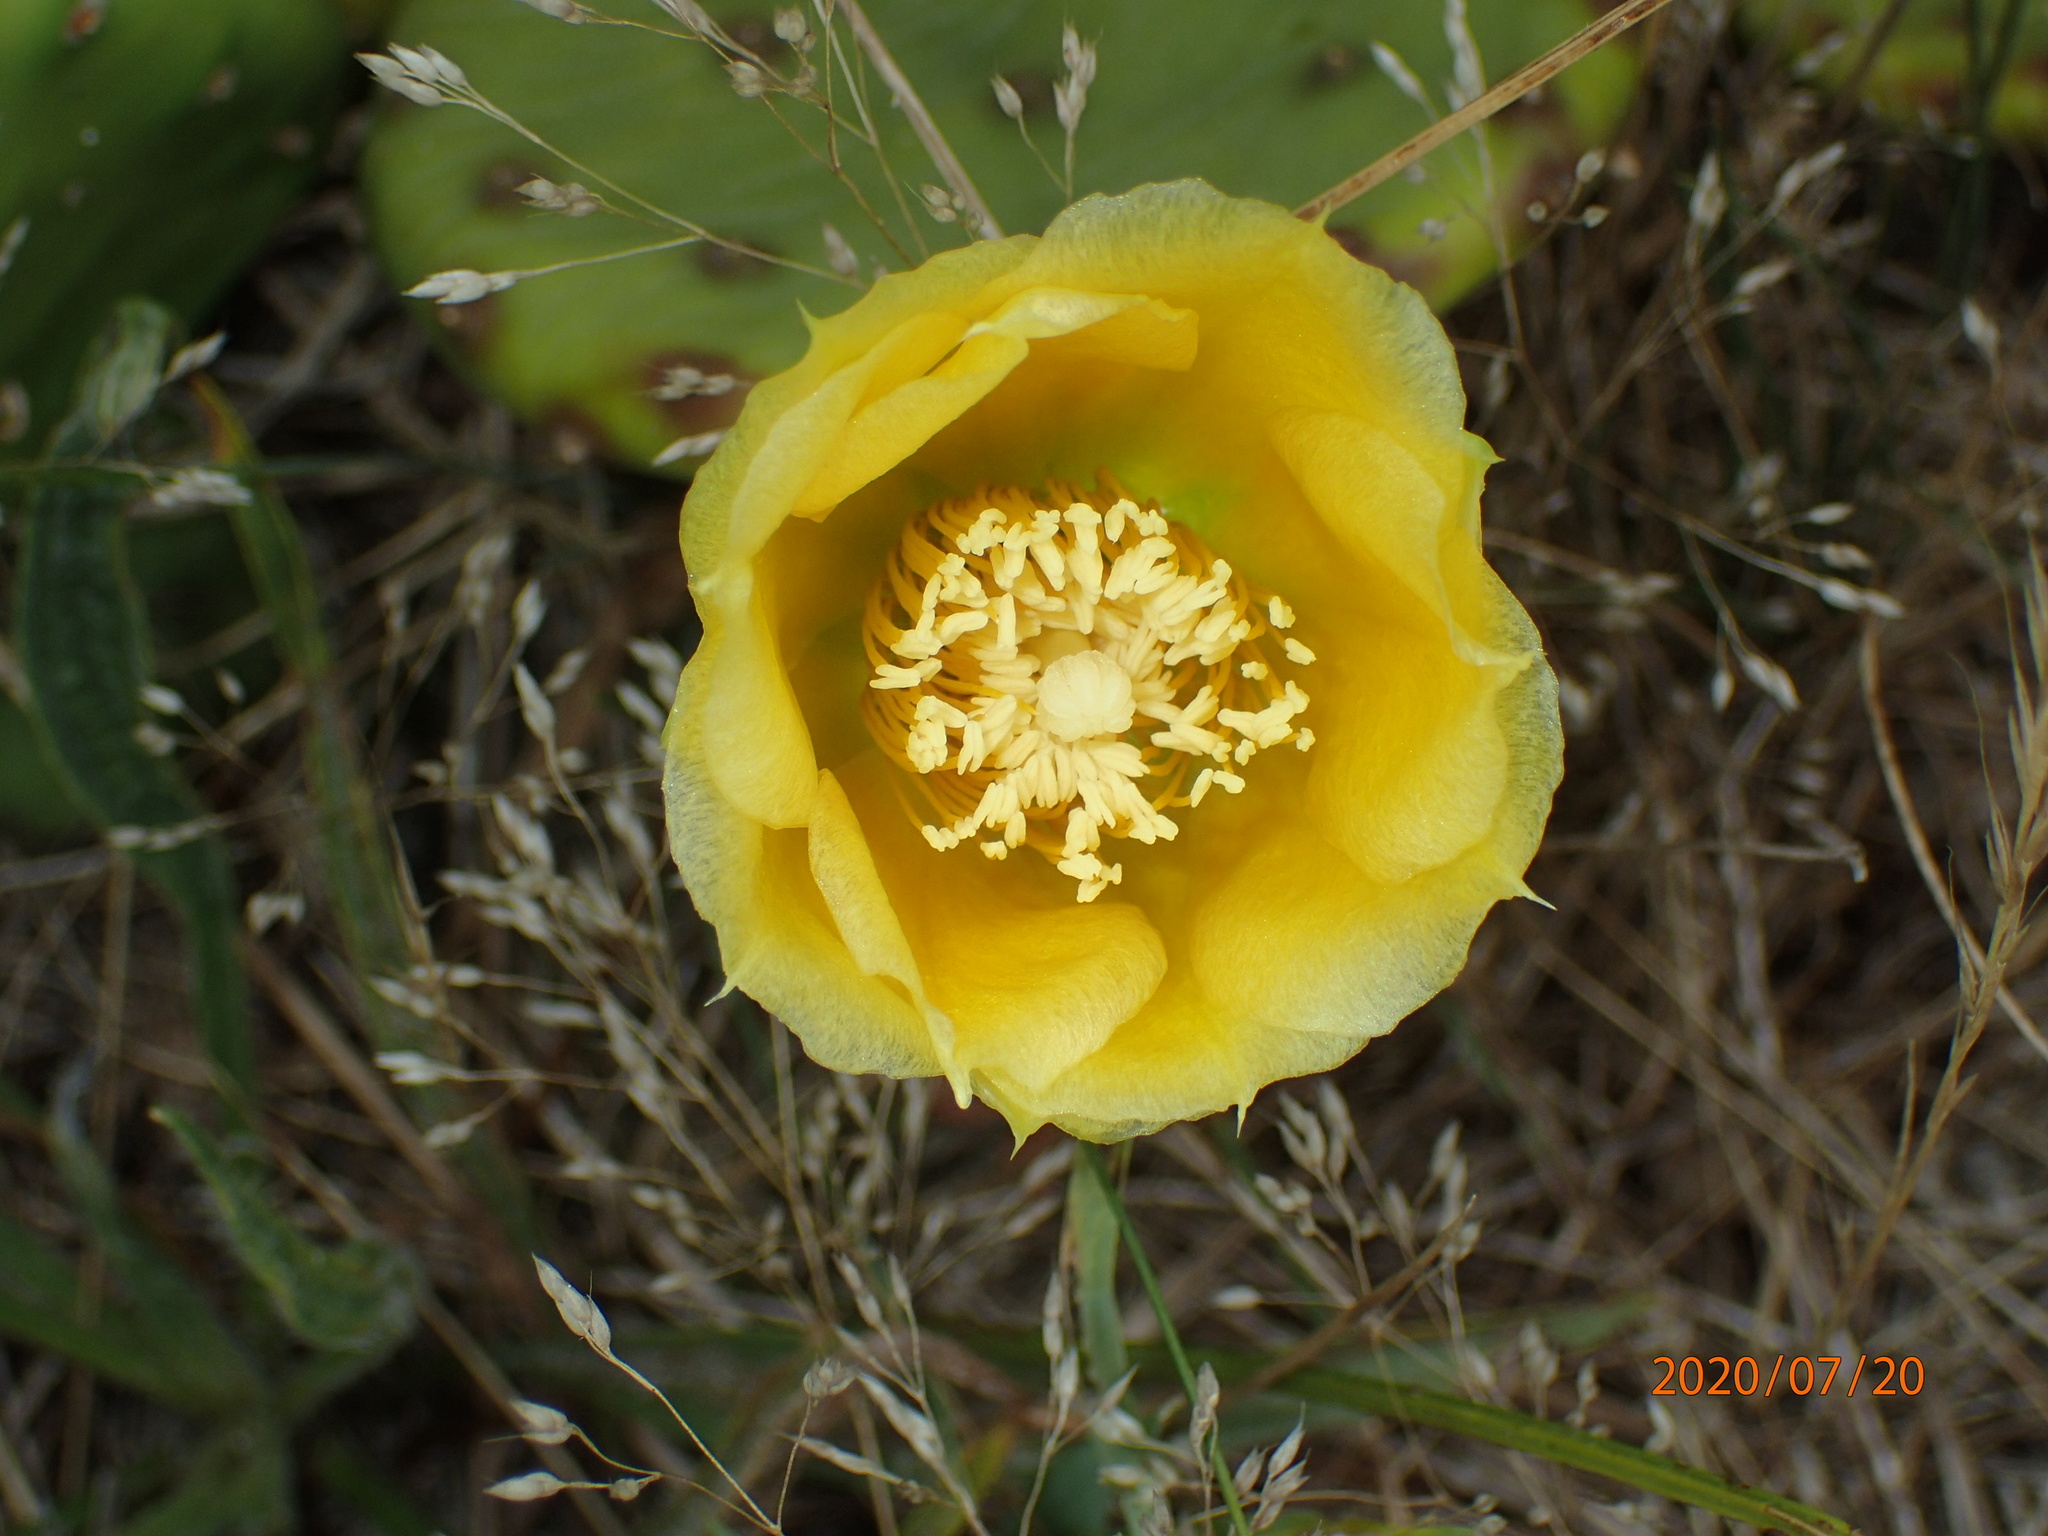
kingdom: Plantae
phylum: Tracheophyta
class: Magnoliopsida
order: Caryophyllales
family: Cactaceae
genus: Opuntia
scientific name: Opuntia humifusa
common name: Eastern prickly-pear
